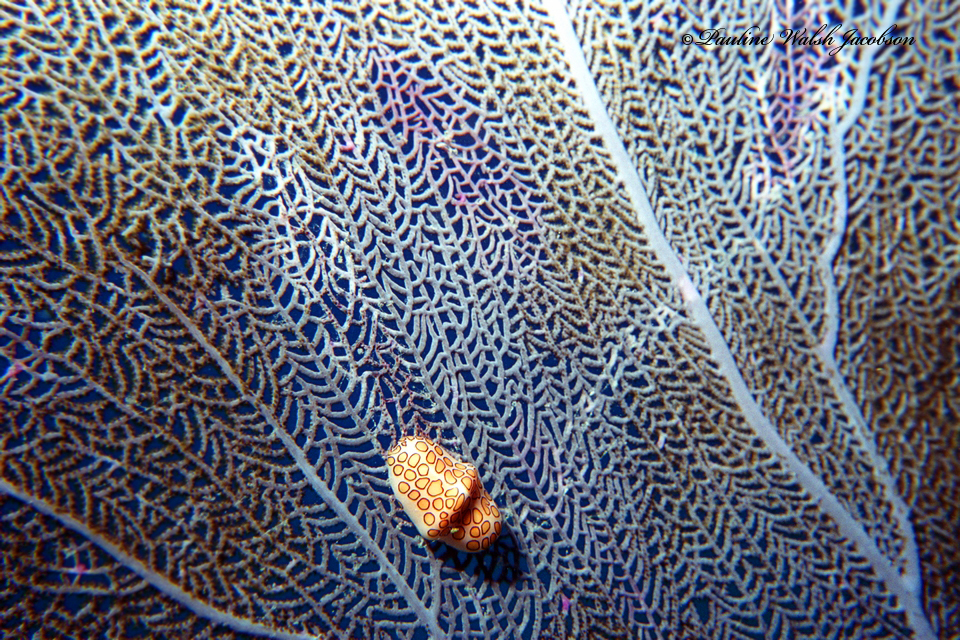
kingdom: Animalia
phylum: Mollusca
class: Gastropoda
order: Littorinimorpha
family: Ovulidae
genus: Cyphoma
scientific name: Cyphoma gibbosum
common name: Flamingo tongue
